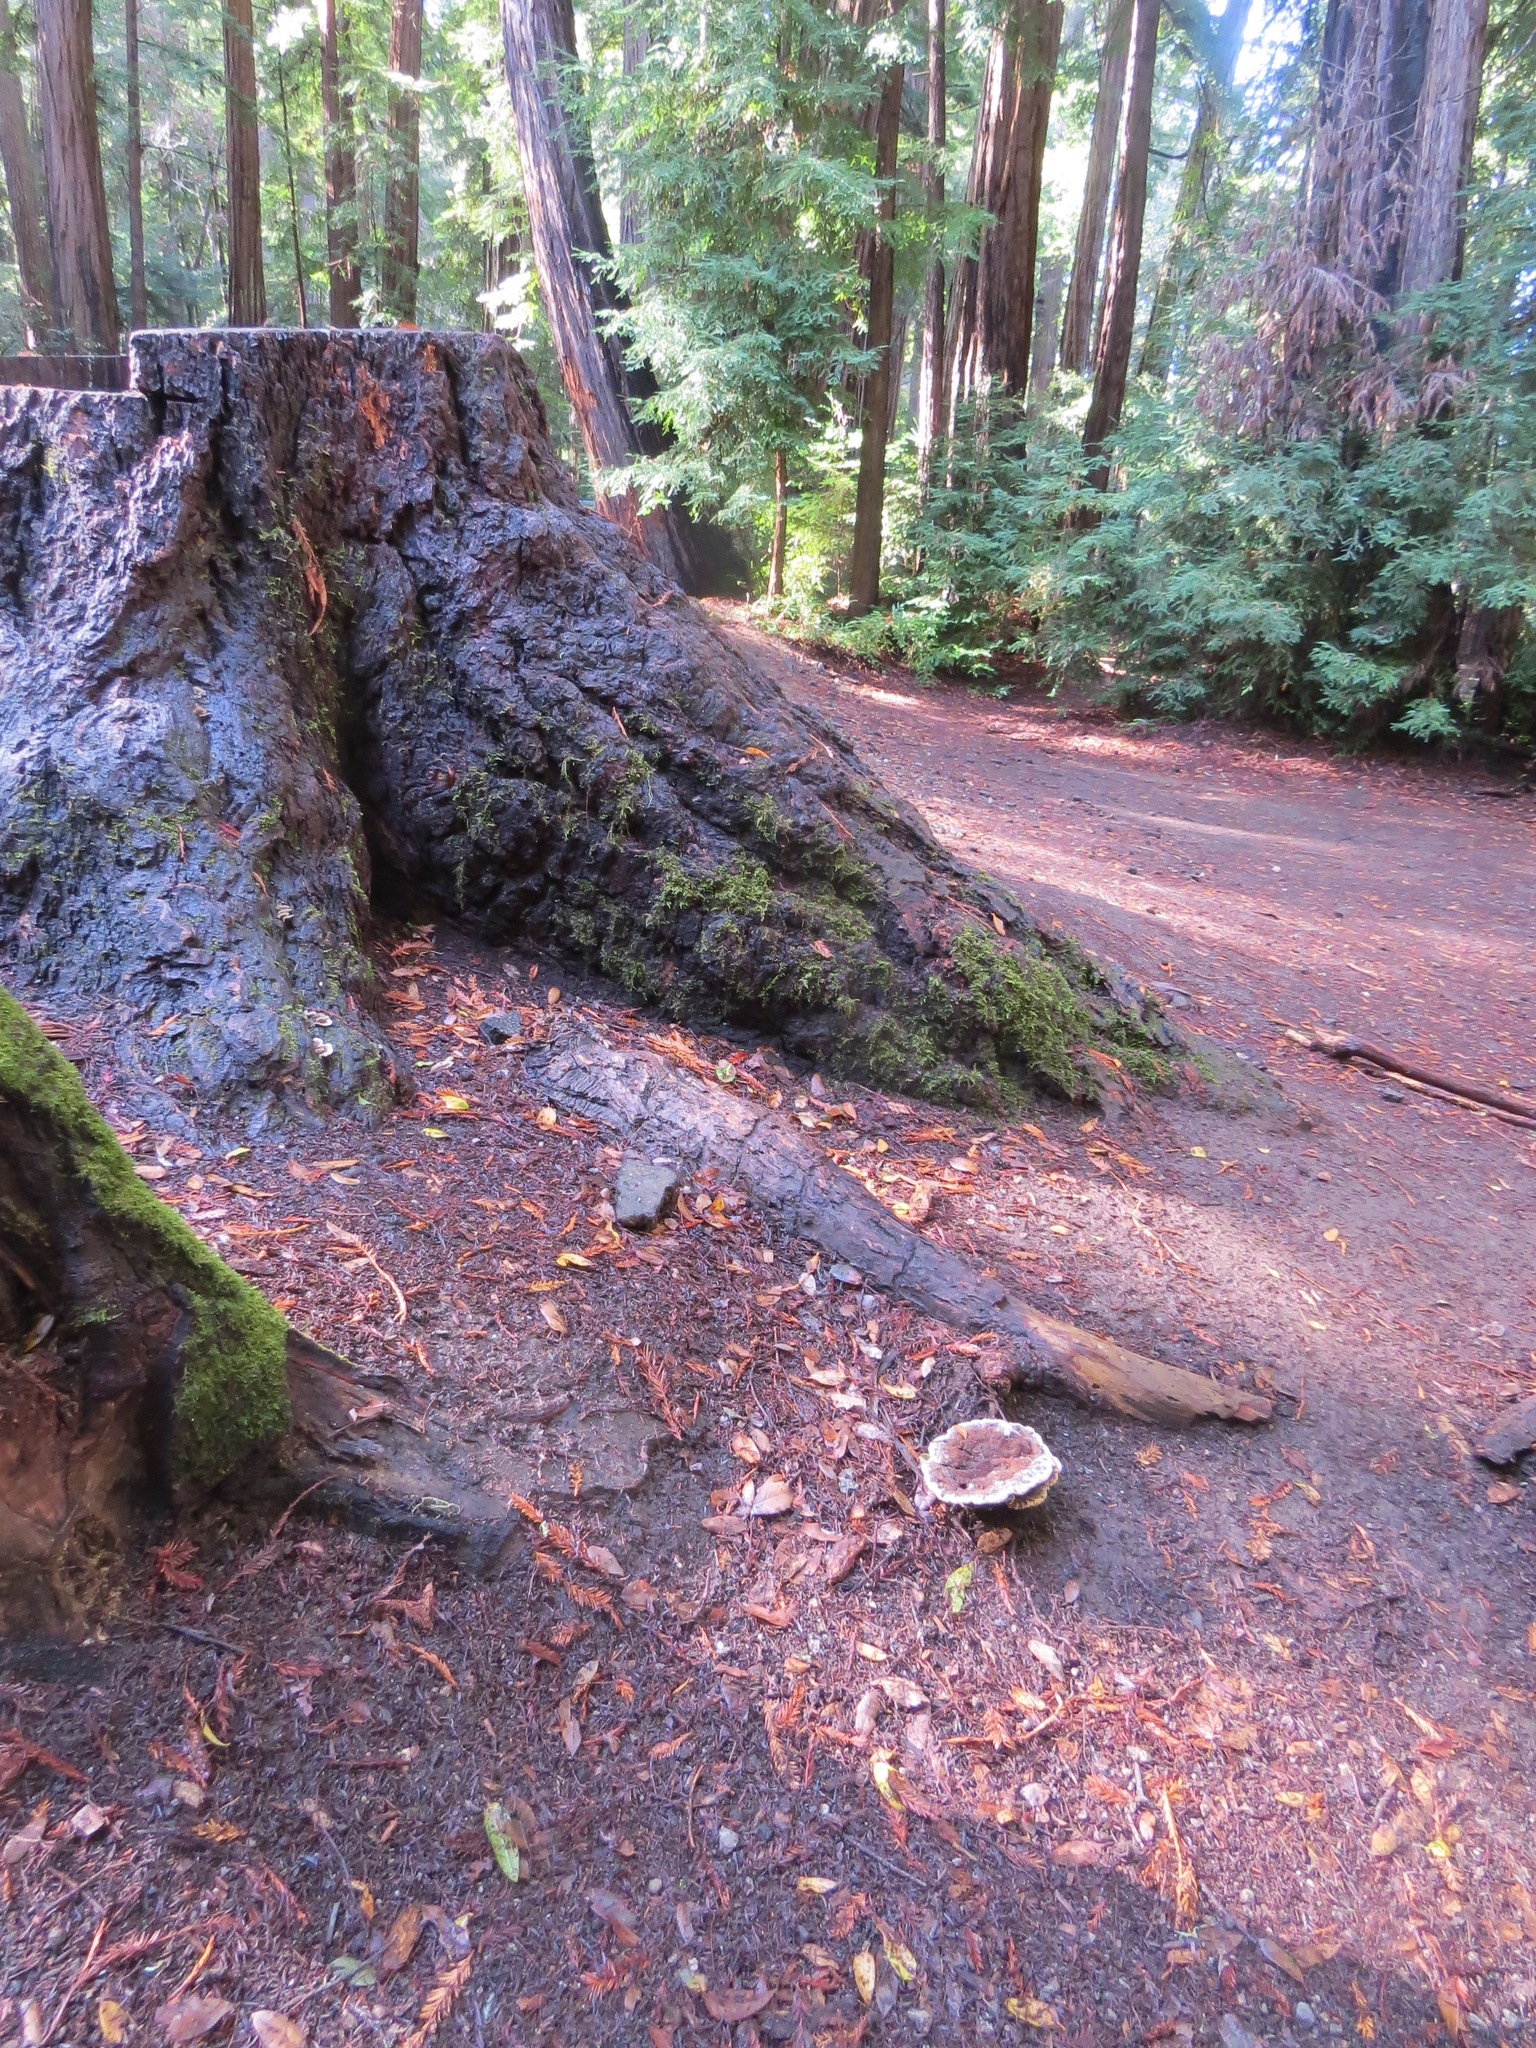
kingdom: Fungi
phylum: Basidiomycota
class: Agaricomycetes
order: Polyporales
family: Laetiporaceae
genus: Phaeolus
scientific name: Phaeolus schweinitzii
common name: Dyer's mazegill
